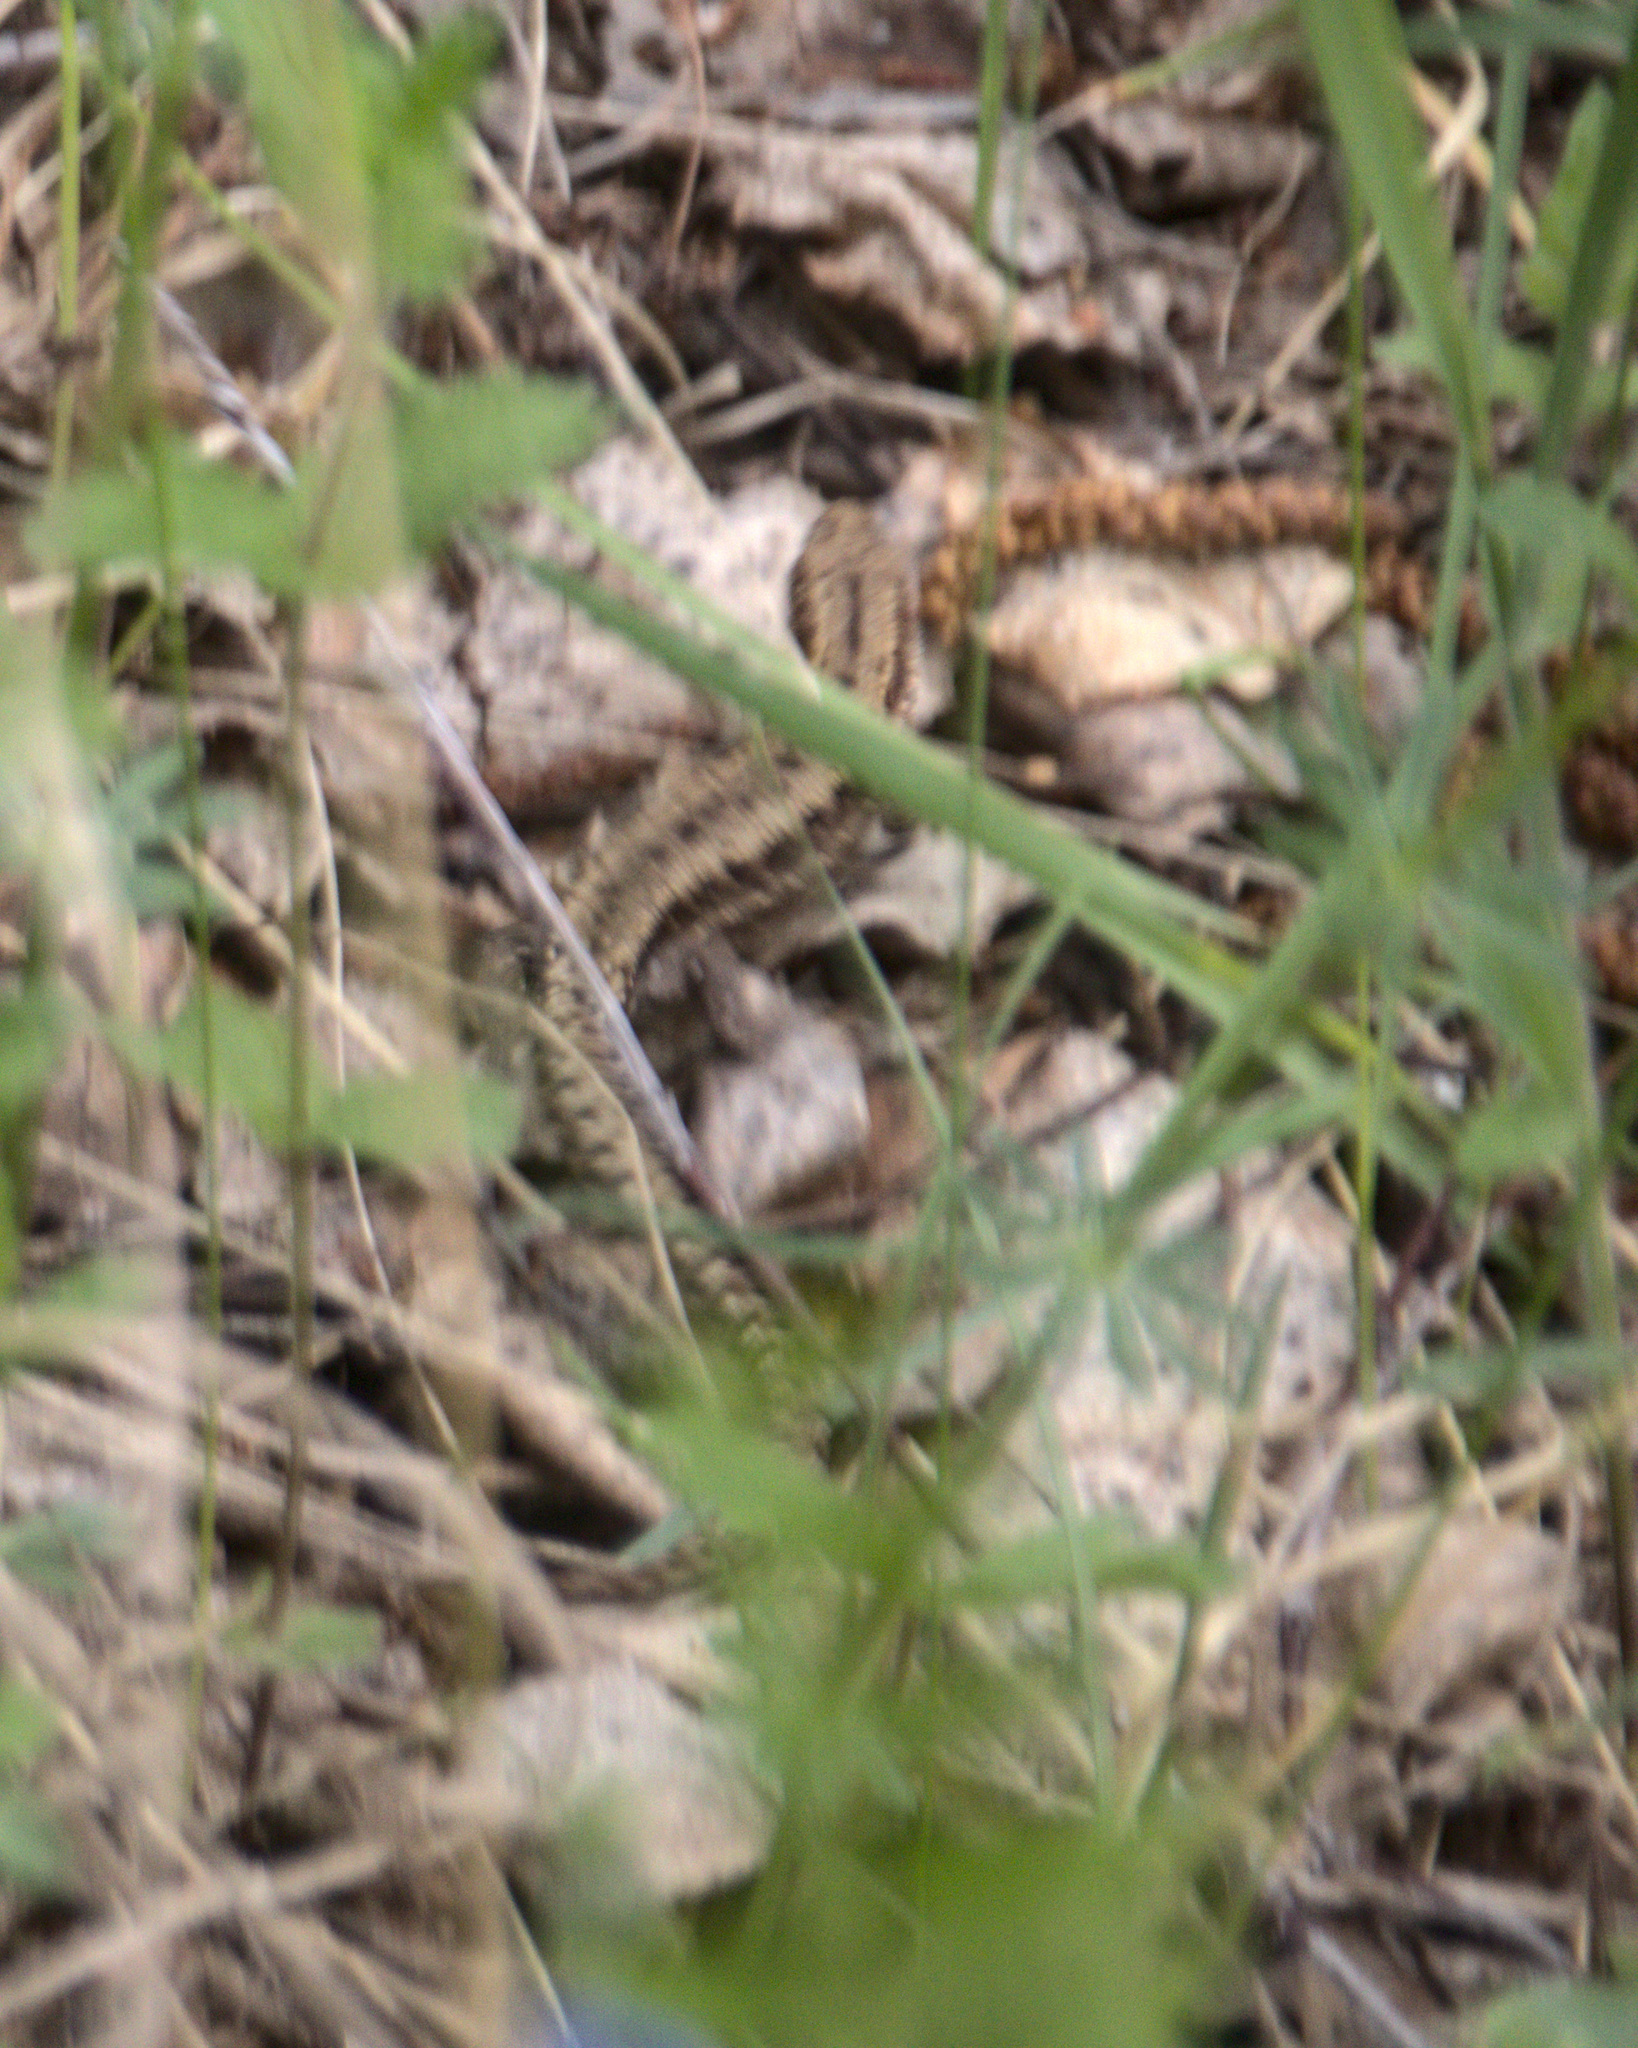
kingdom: Animalia
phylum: Chordata
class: Squamata
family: Lacertidae
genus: Zootoca
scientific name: Zootoca vivipara
